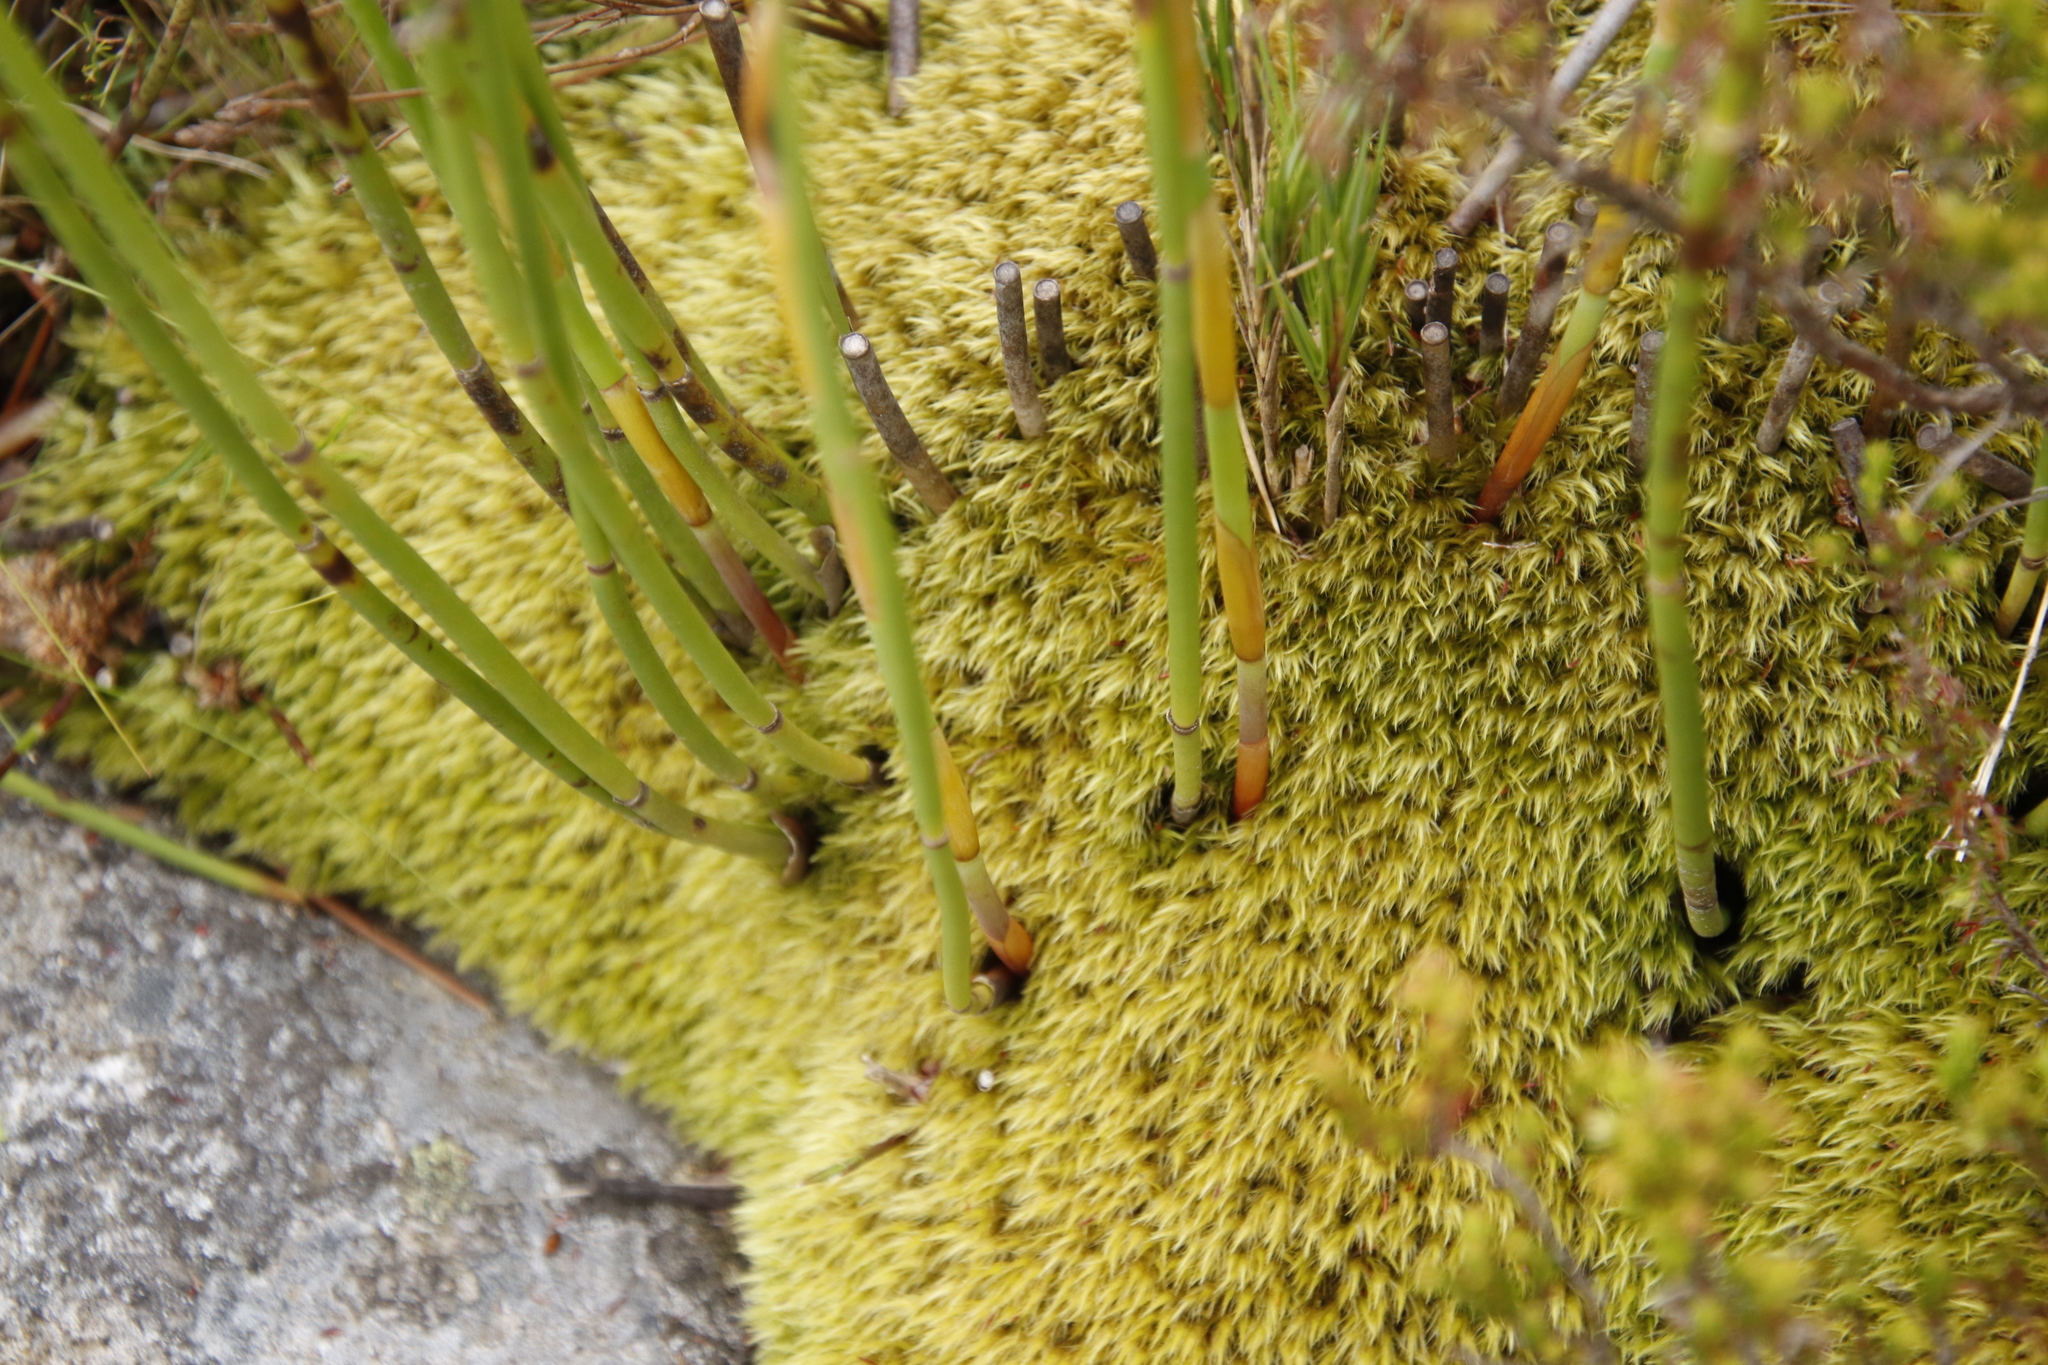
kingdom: Plantae
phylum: Bryophyta
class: Bryopsida
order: Dicranales
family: Dicranaceae
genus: Dicranoloma
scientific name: Dicranoloma billardieri
